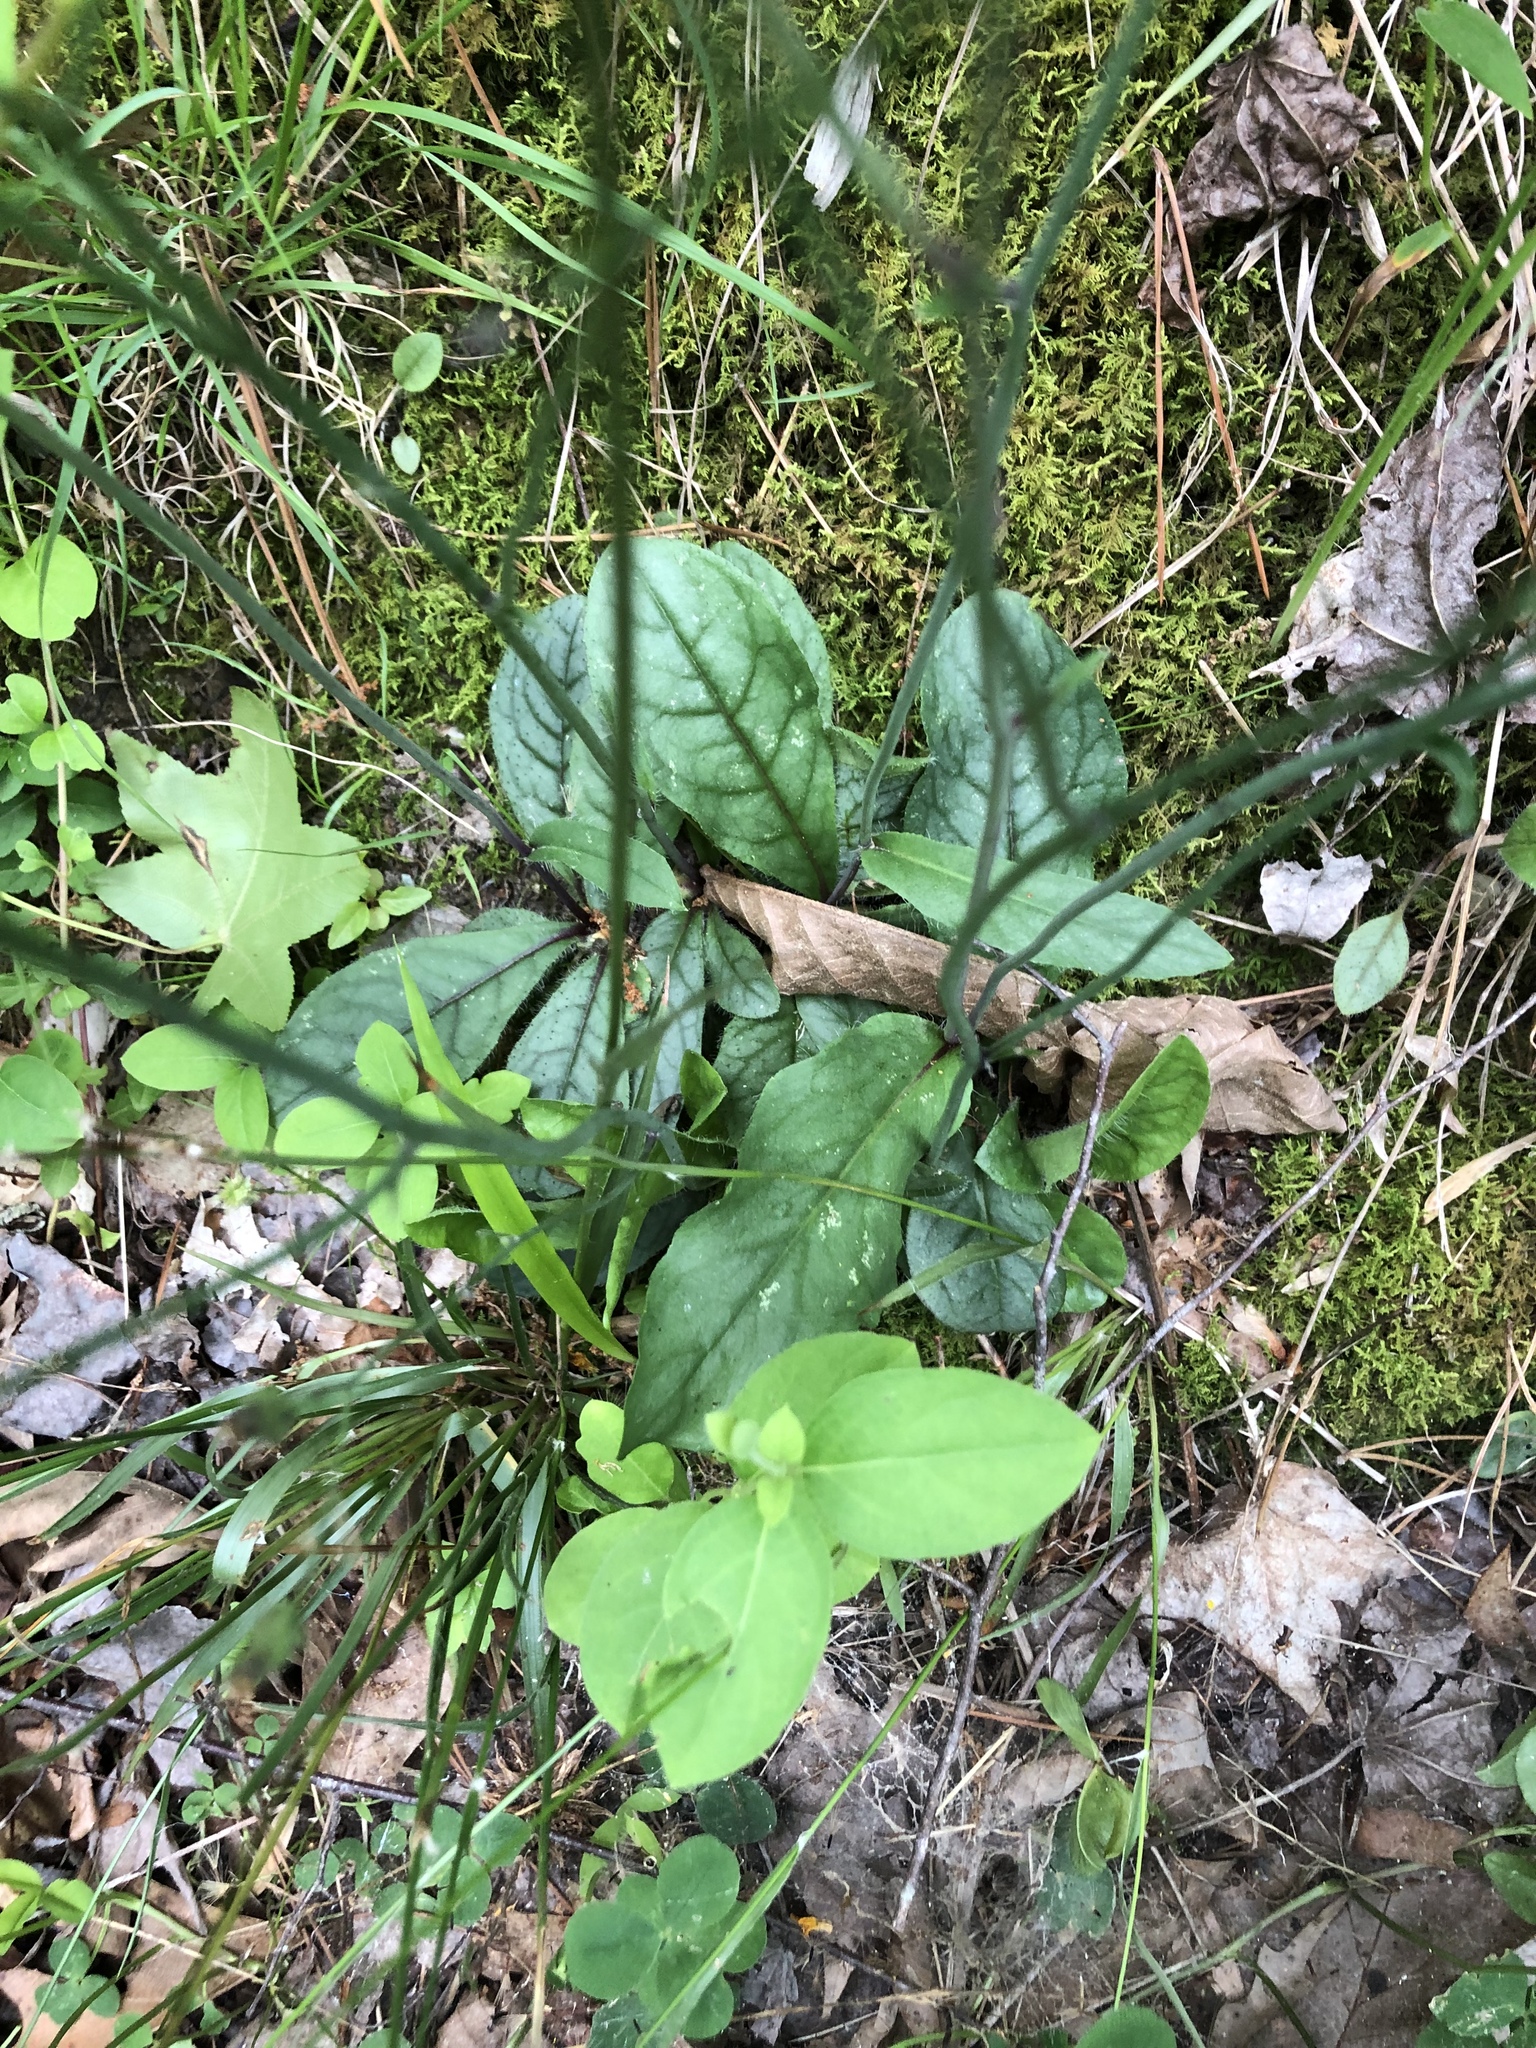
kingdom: Plantae
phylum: Tracheophyta
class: Magnoliopsida
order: Asterales
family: Asteraceae
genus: Hieracium
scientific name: Hieracium venosum
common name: Rattlesnake hawkweed
